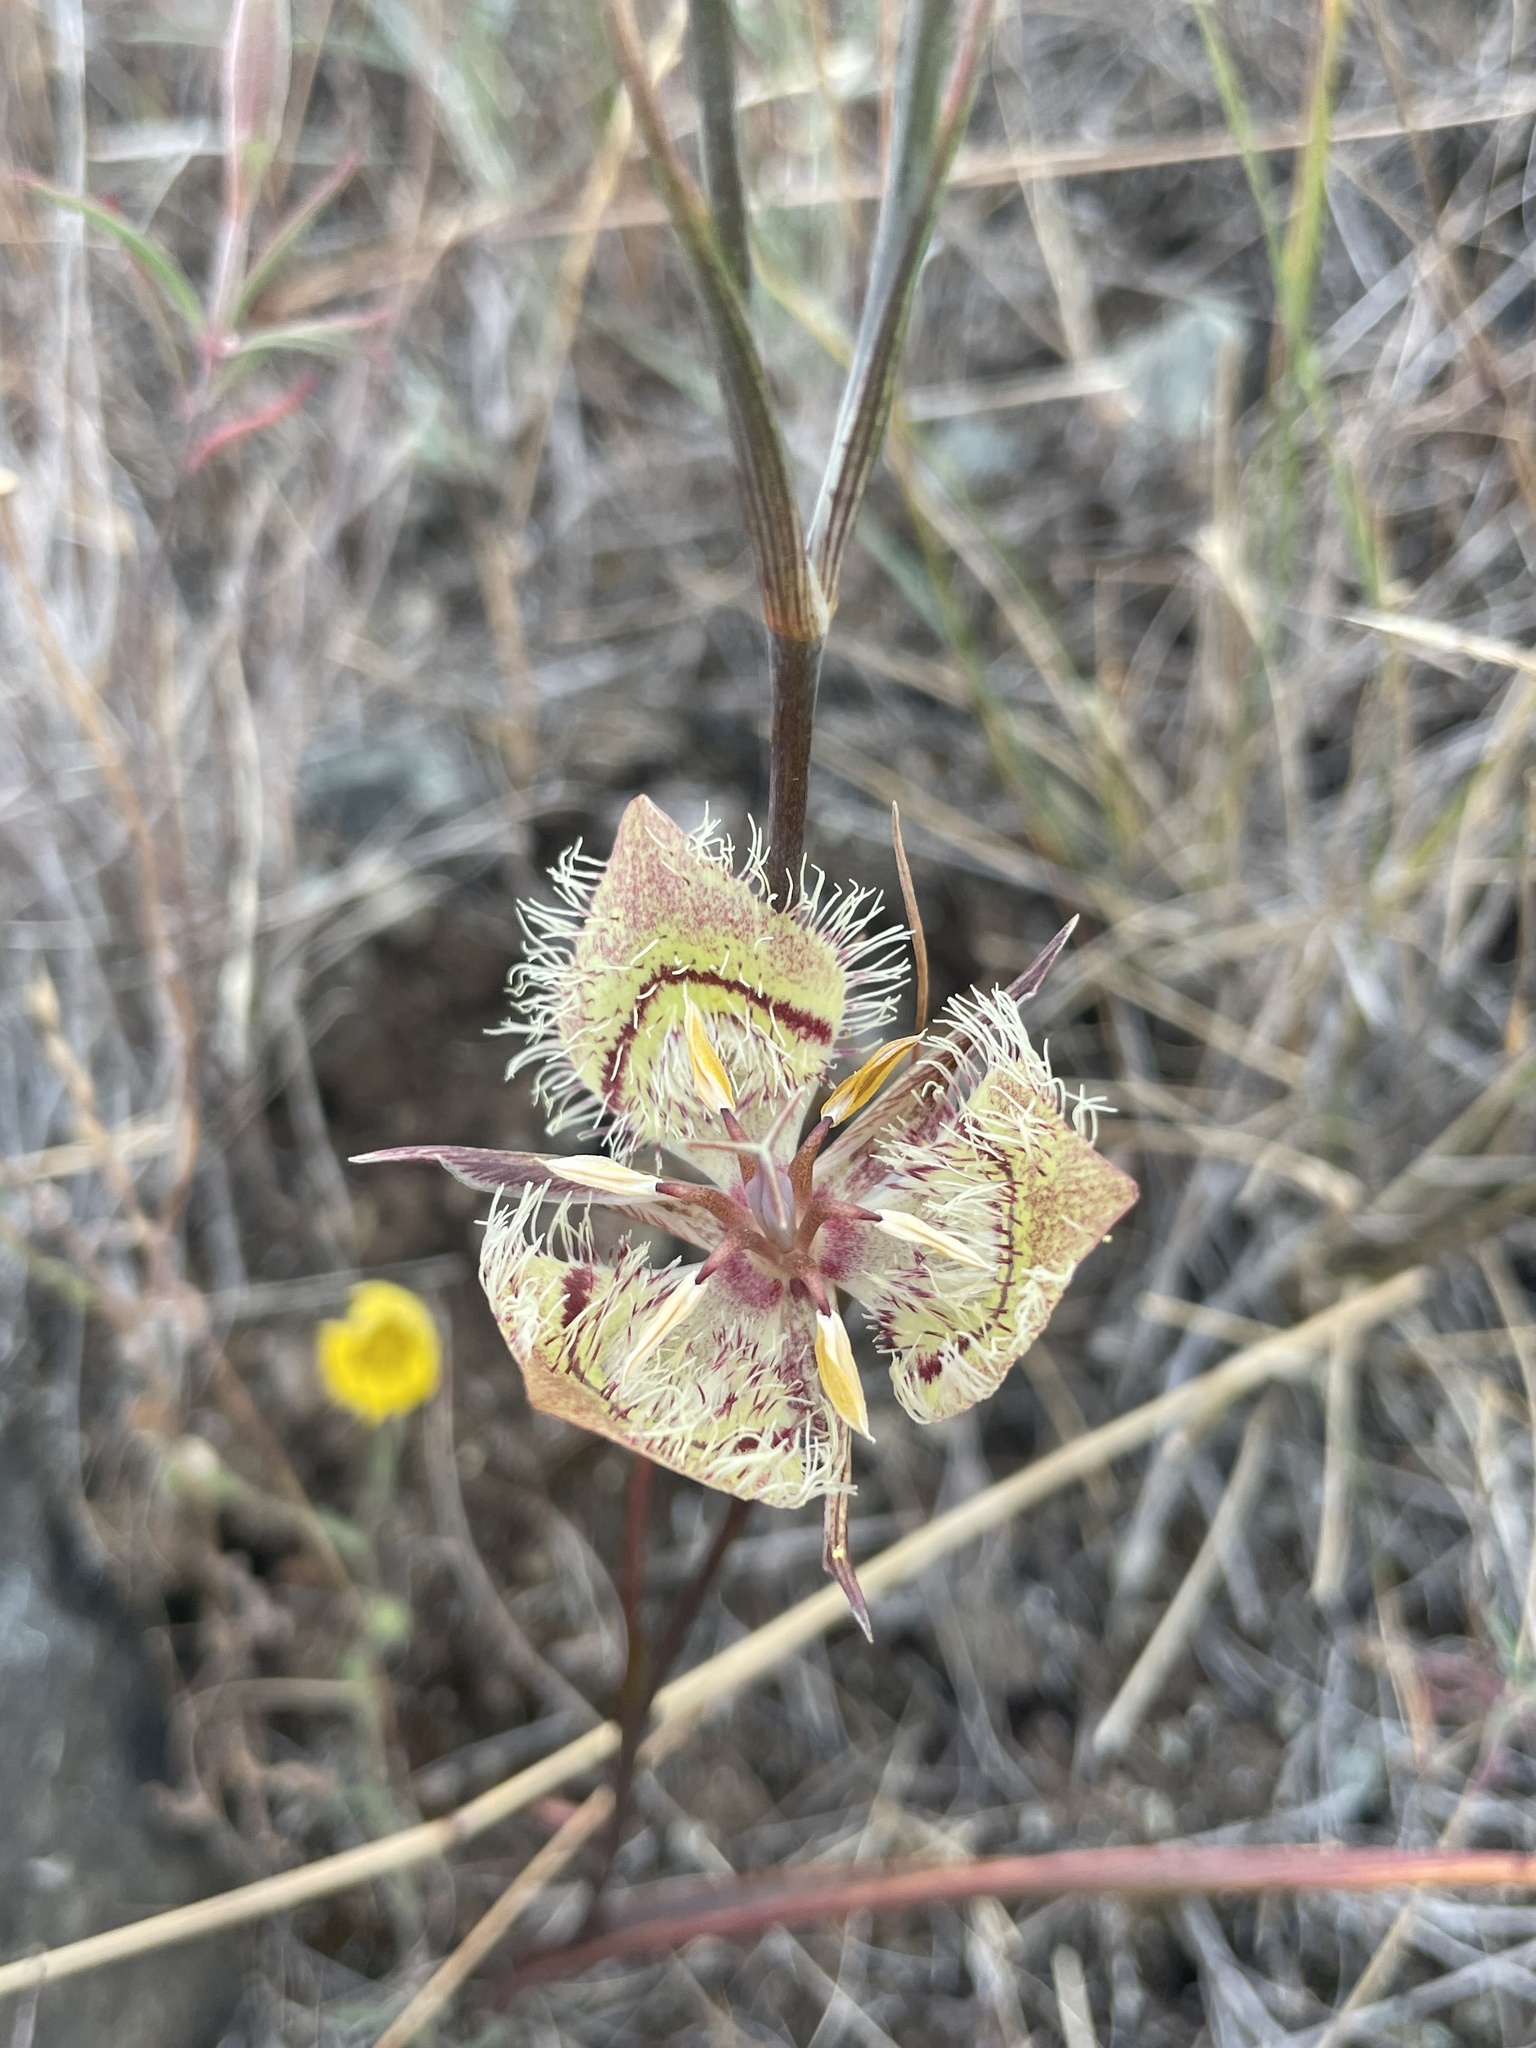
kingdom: Plantae
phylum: Tracheophyta
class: Liliopsida
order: Liliales
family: Liliaceae
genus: Calochortus
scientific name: Calochortus tiburonensis
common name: Tiburon mariposa-lily
